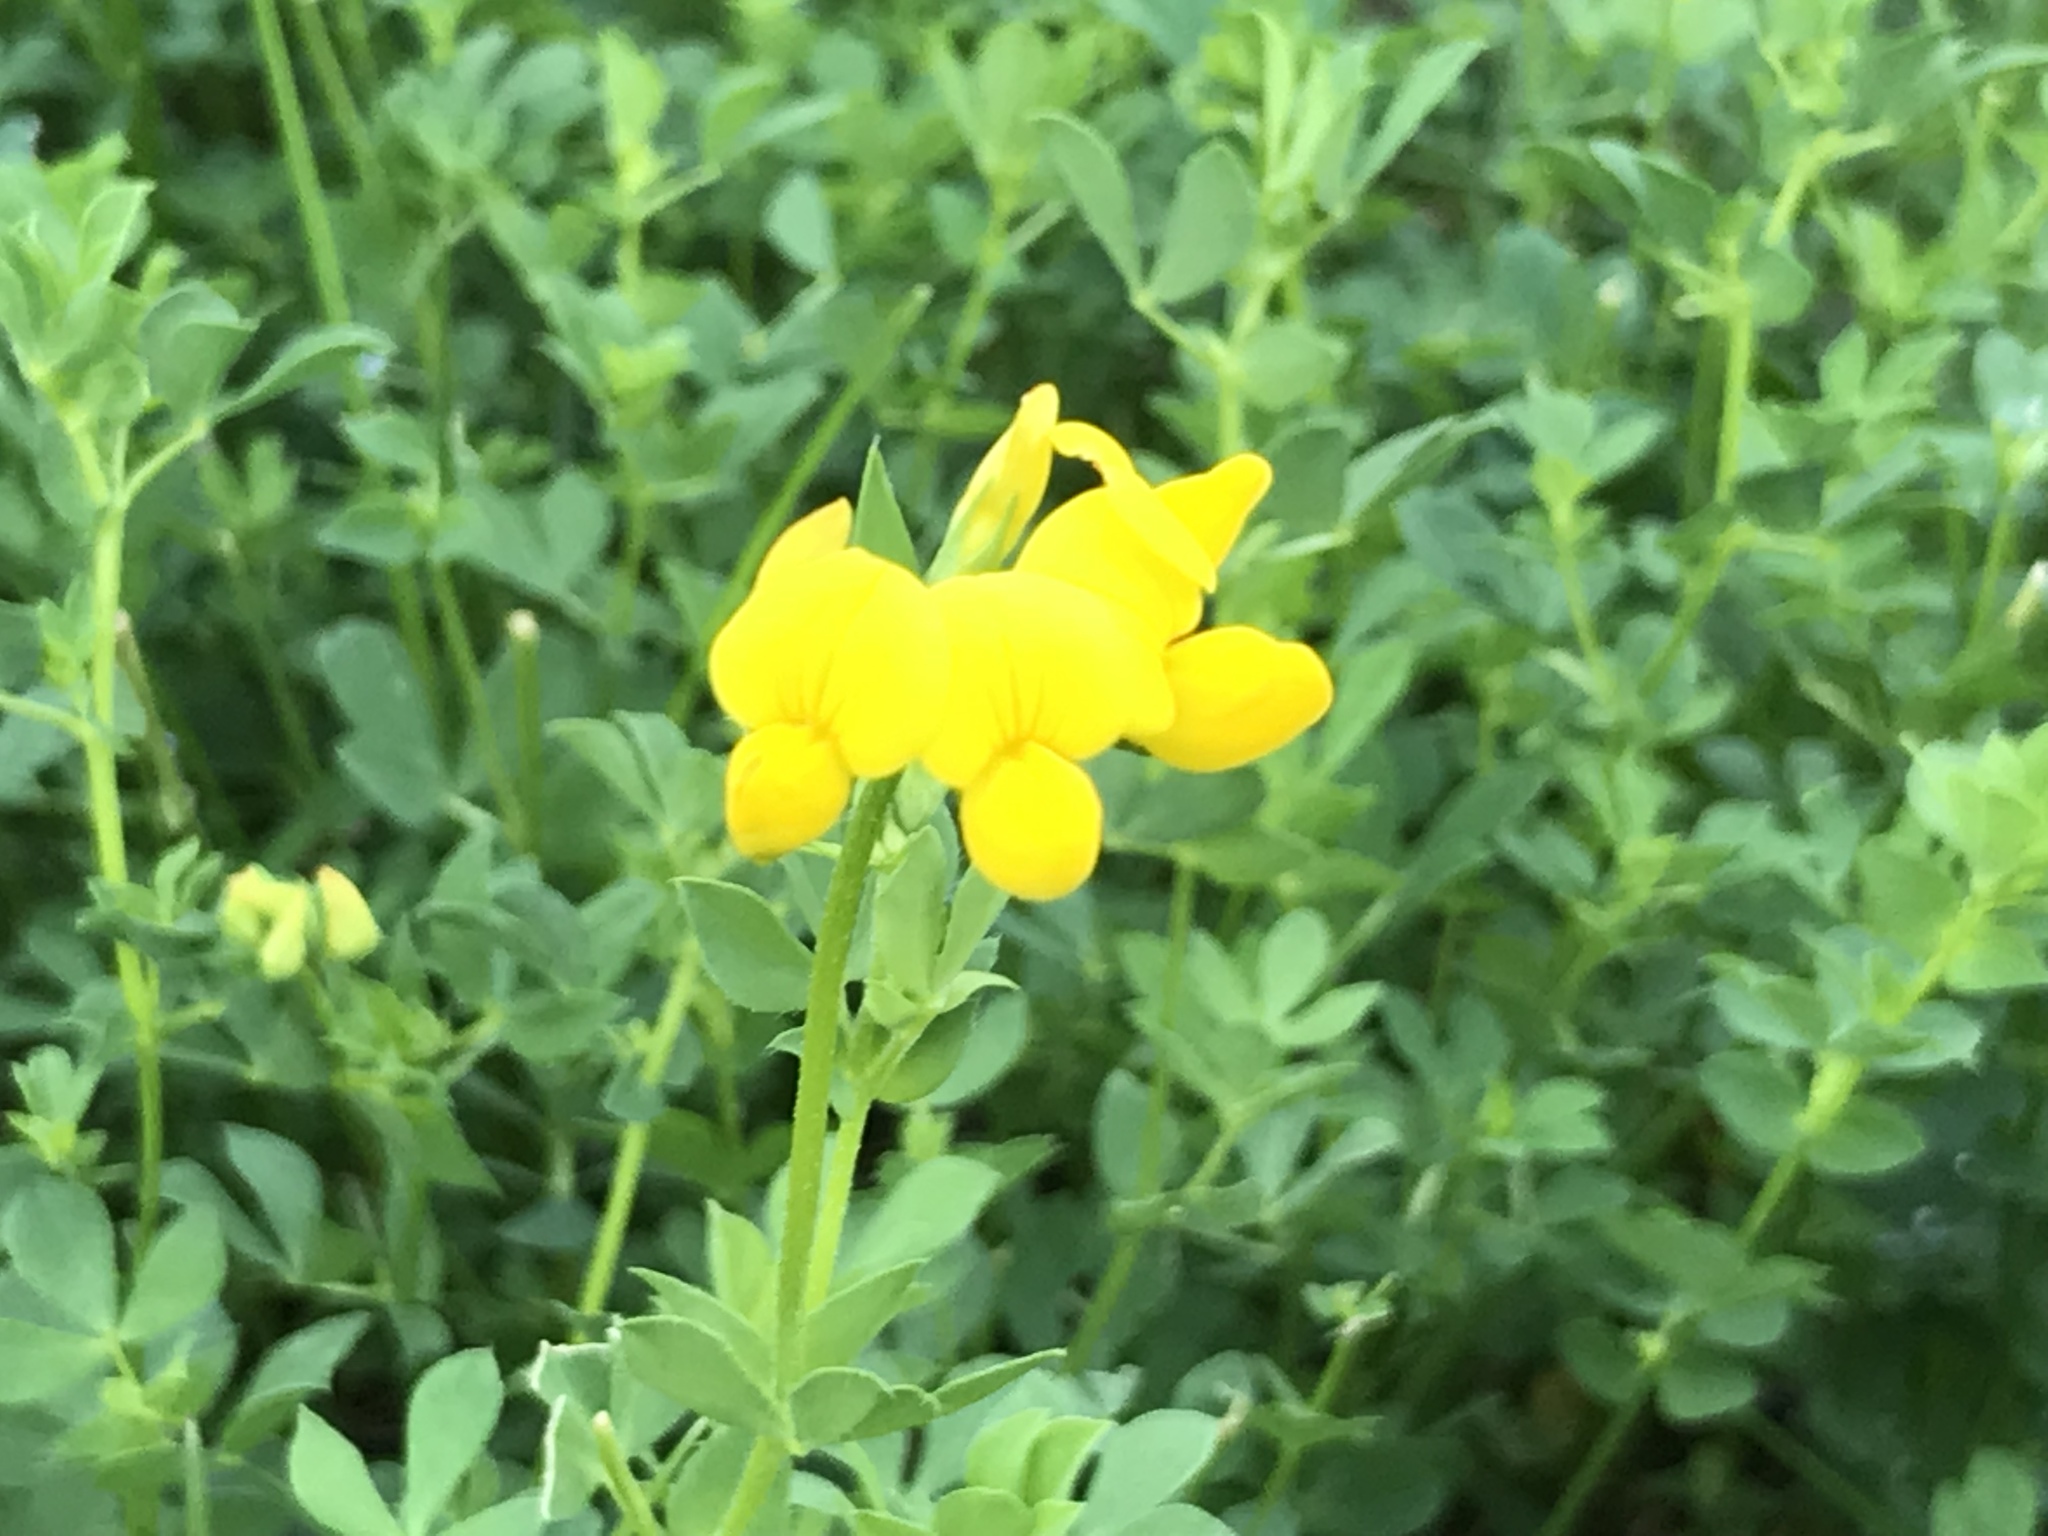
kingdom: Plantae
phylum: Tracheophyta
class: Magnoliopsida
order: Fabales
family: Fabaceae
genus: Lotus
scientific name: Lotus corniculatus
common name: Common bird's-foot-trefoil
